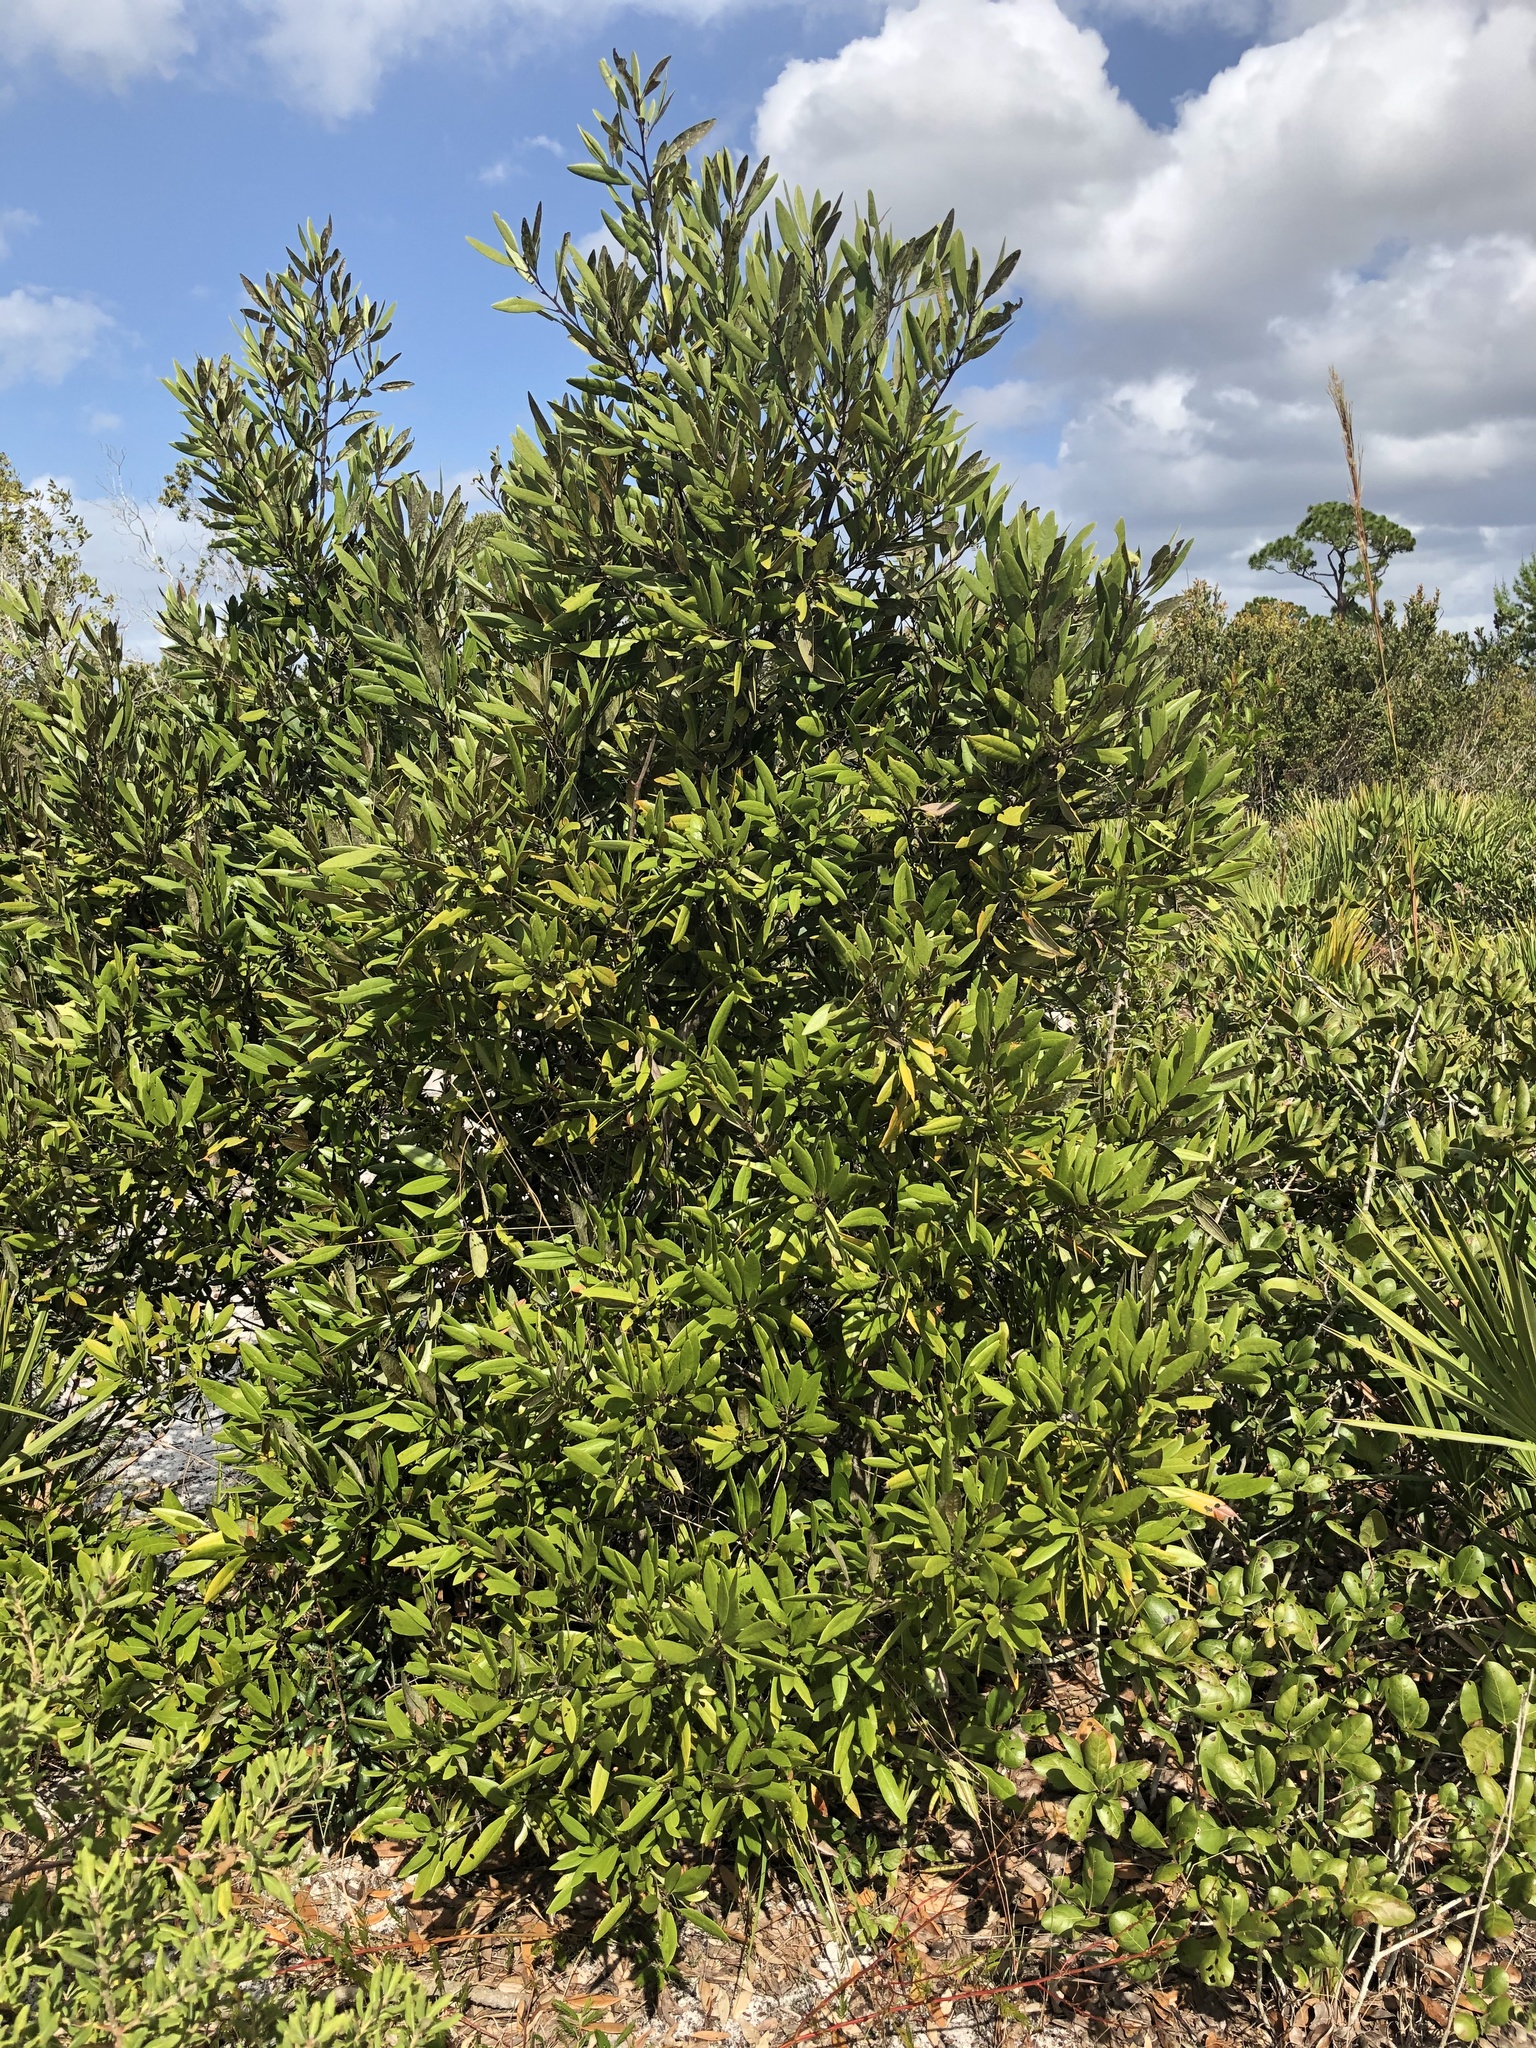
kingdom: Plantae
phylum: Tracheophyta
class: Magnoliopsida
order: Laurales
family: Lauraceae
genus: Persea
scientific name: Persea humilis
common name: Silkbay
